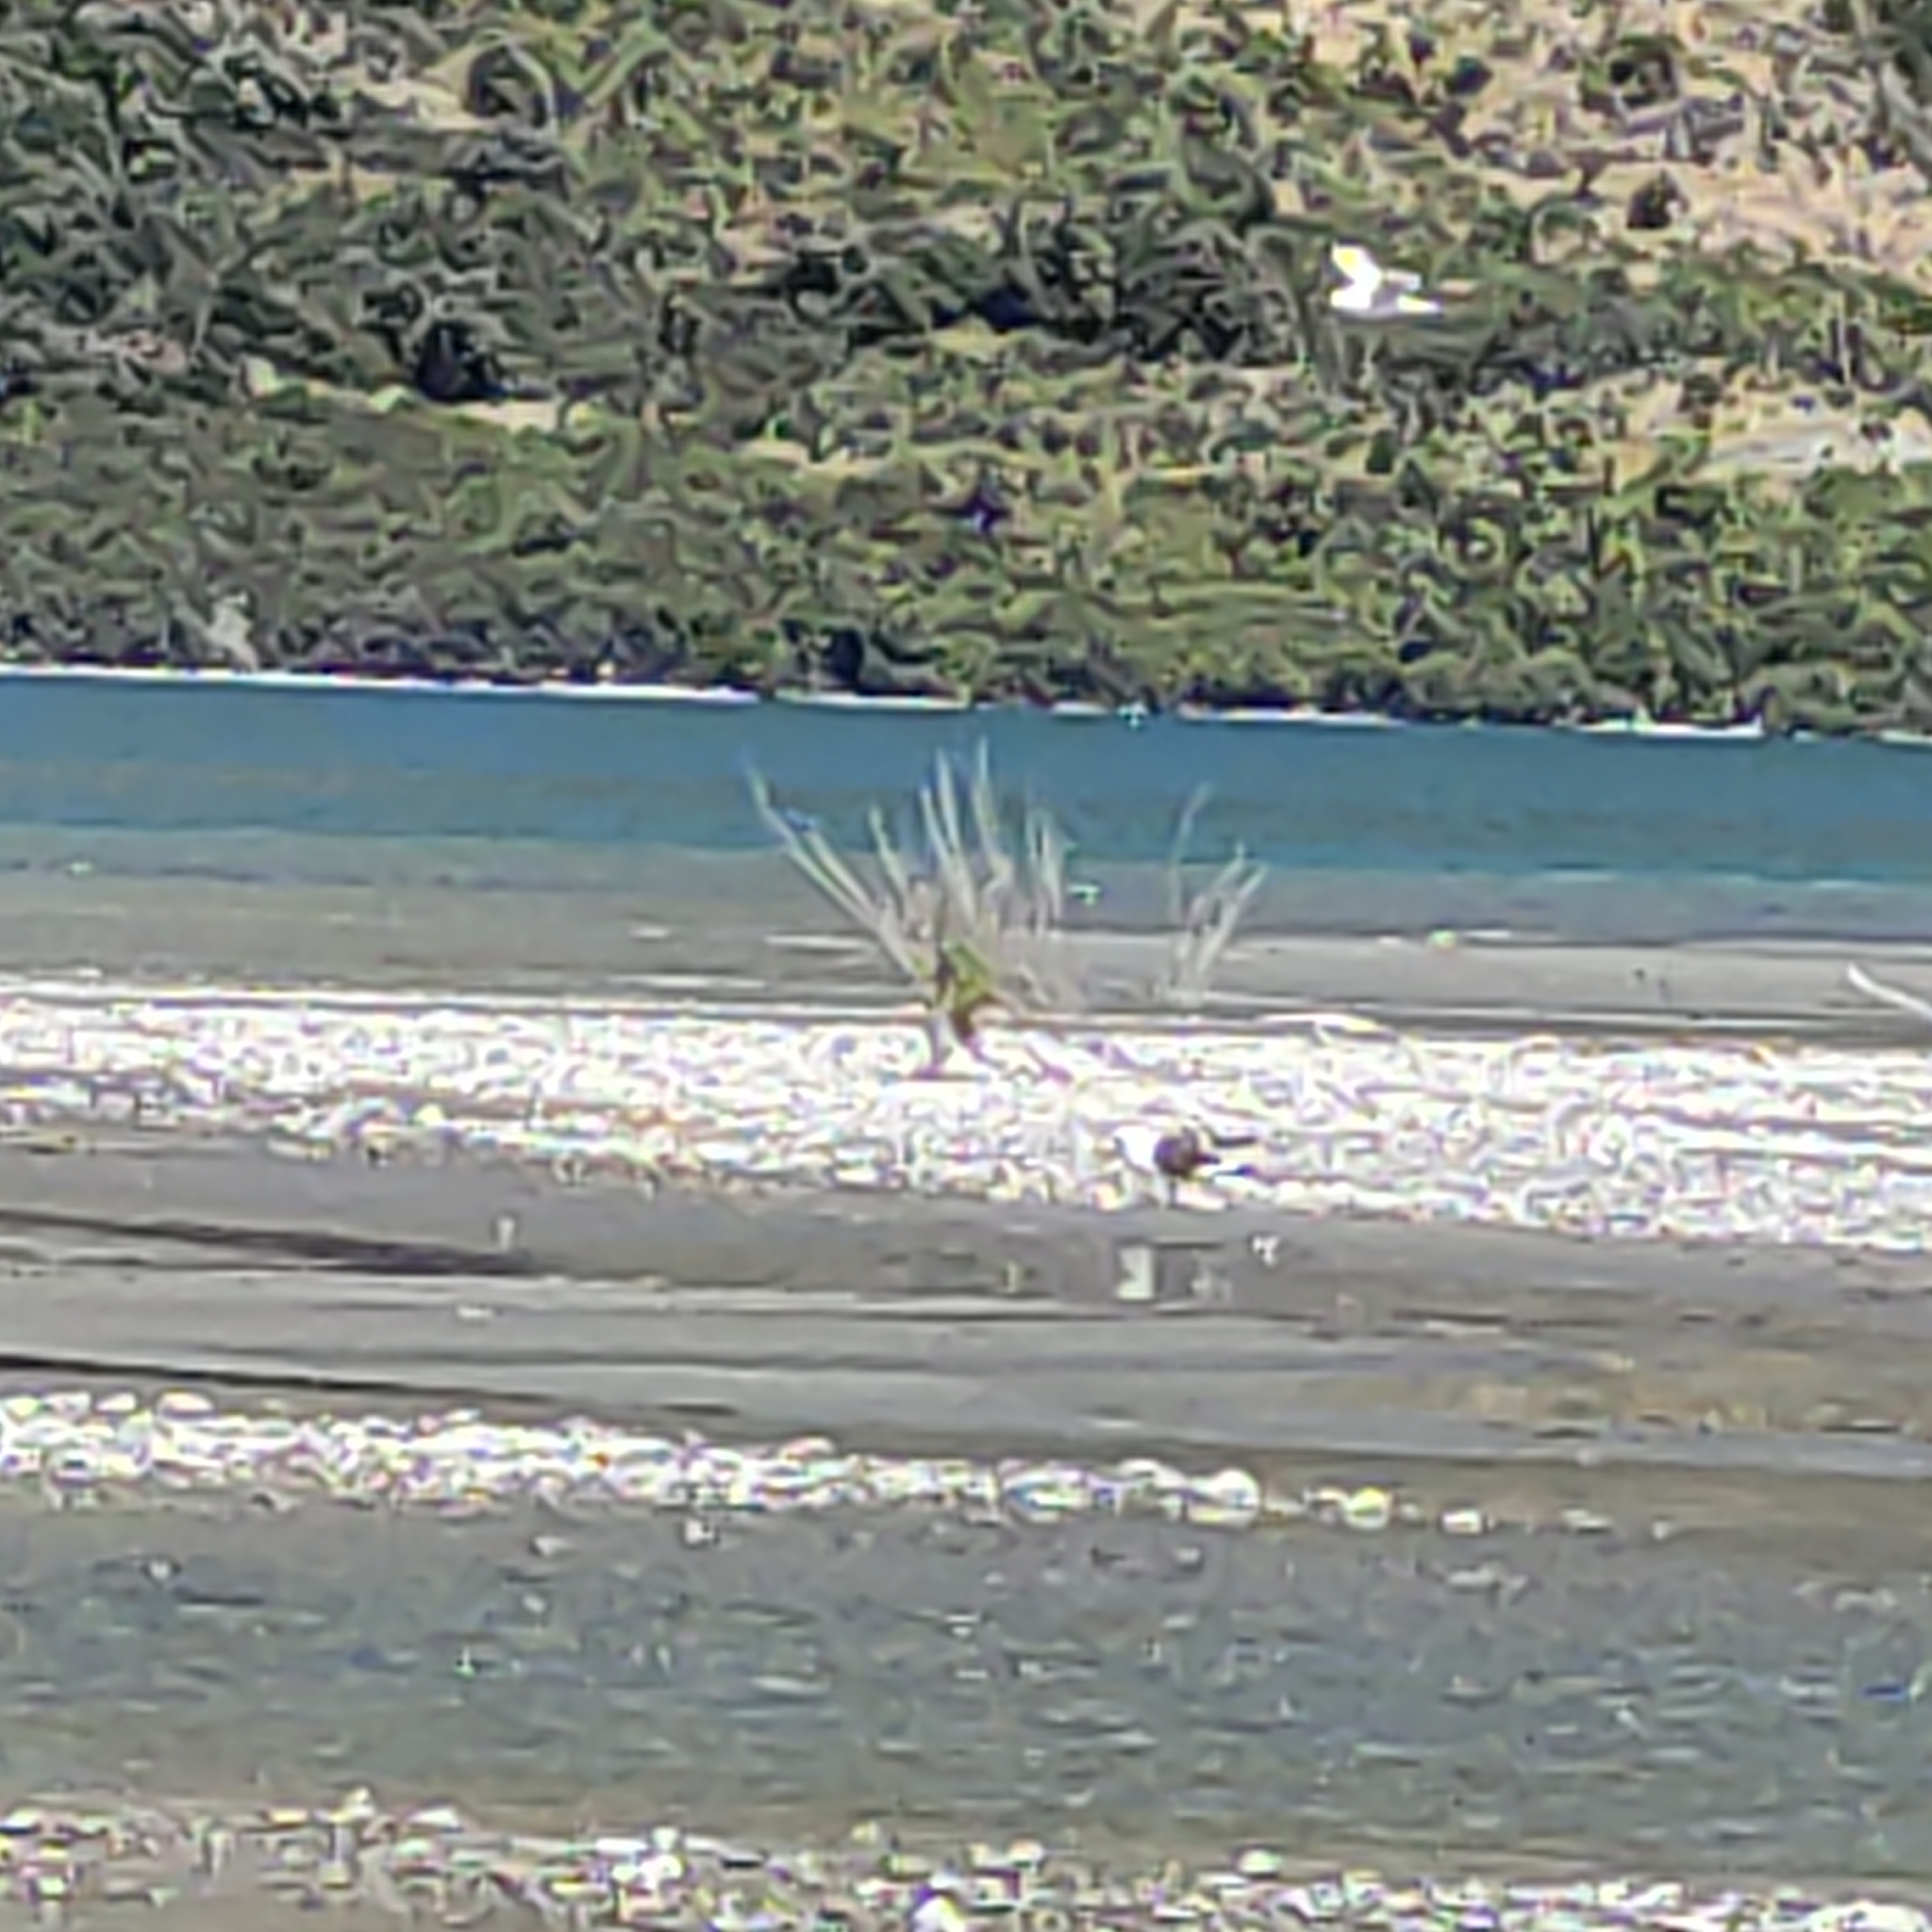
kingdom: Animalia
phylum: Chordata
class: Aves
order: Charadriiformes
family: Laridae
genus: Larus
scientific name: Larus dominicanus
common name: Kelp gull
